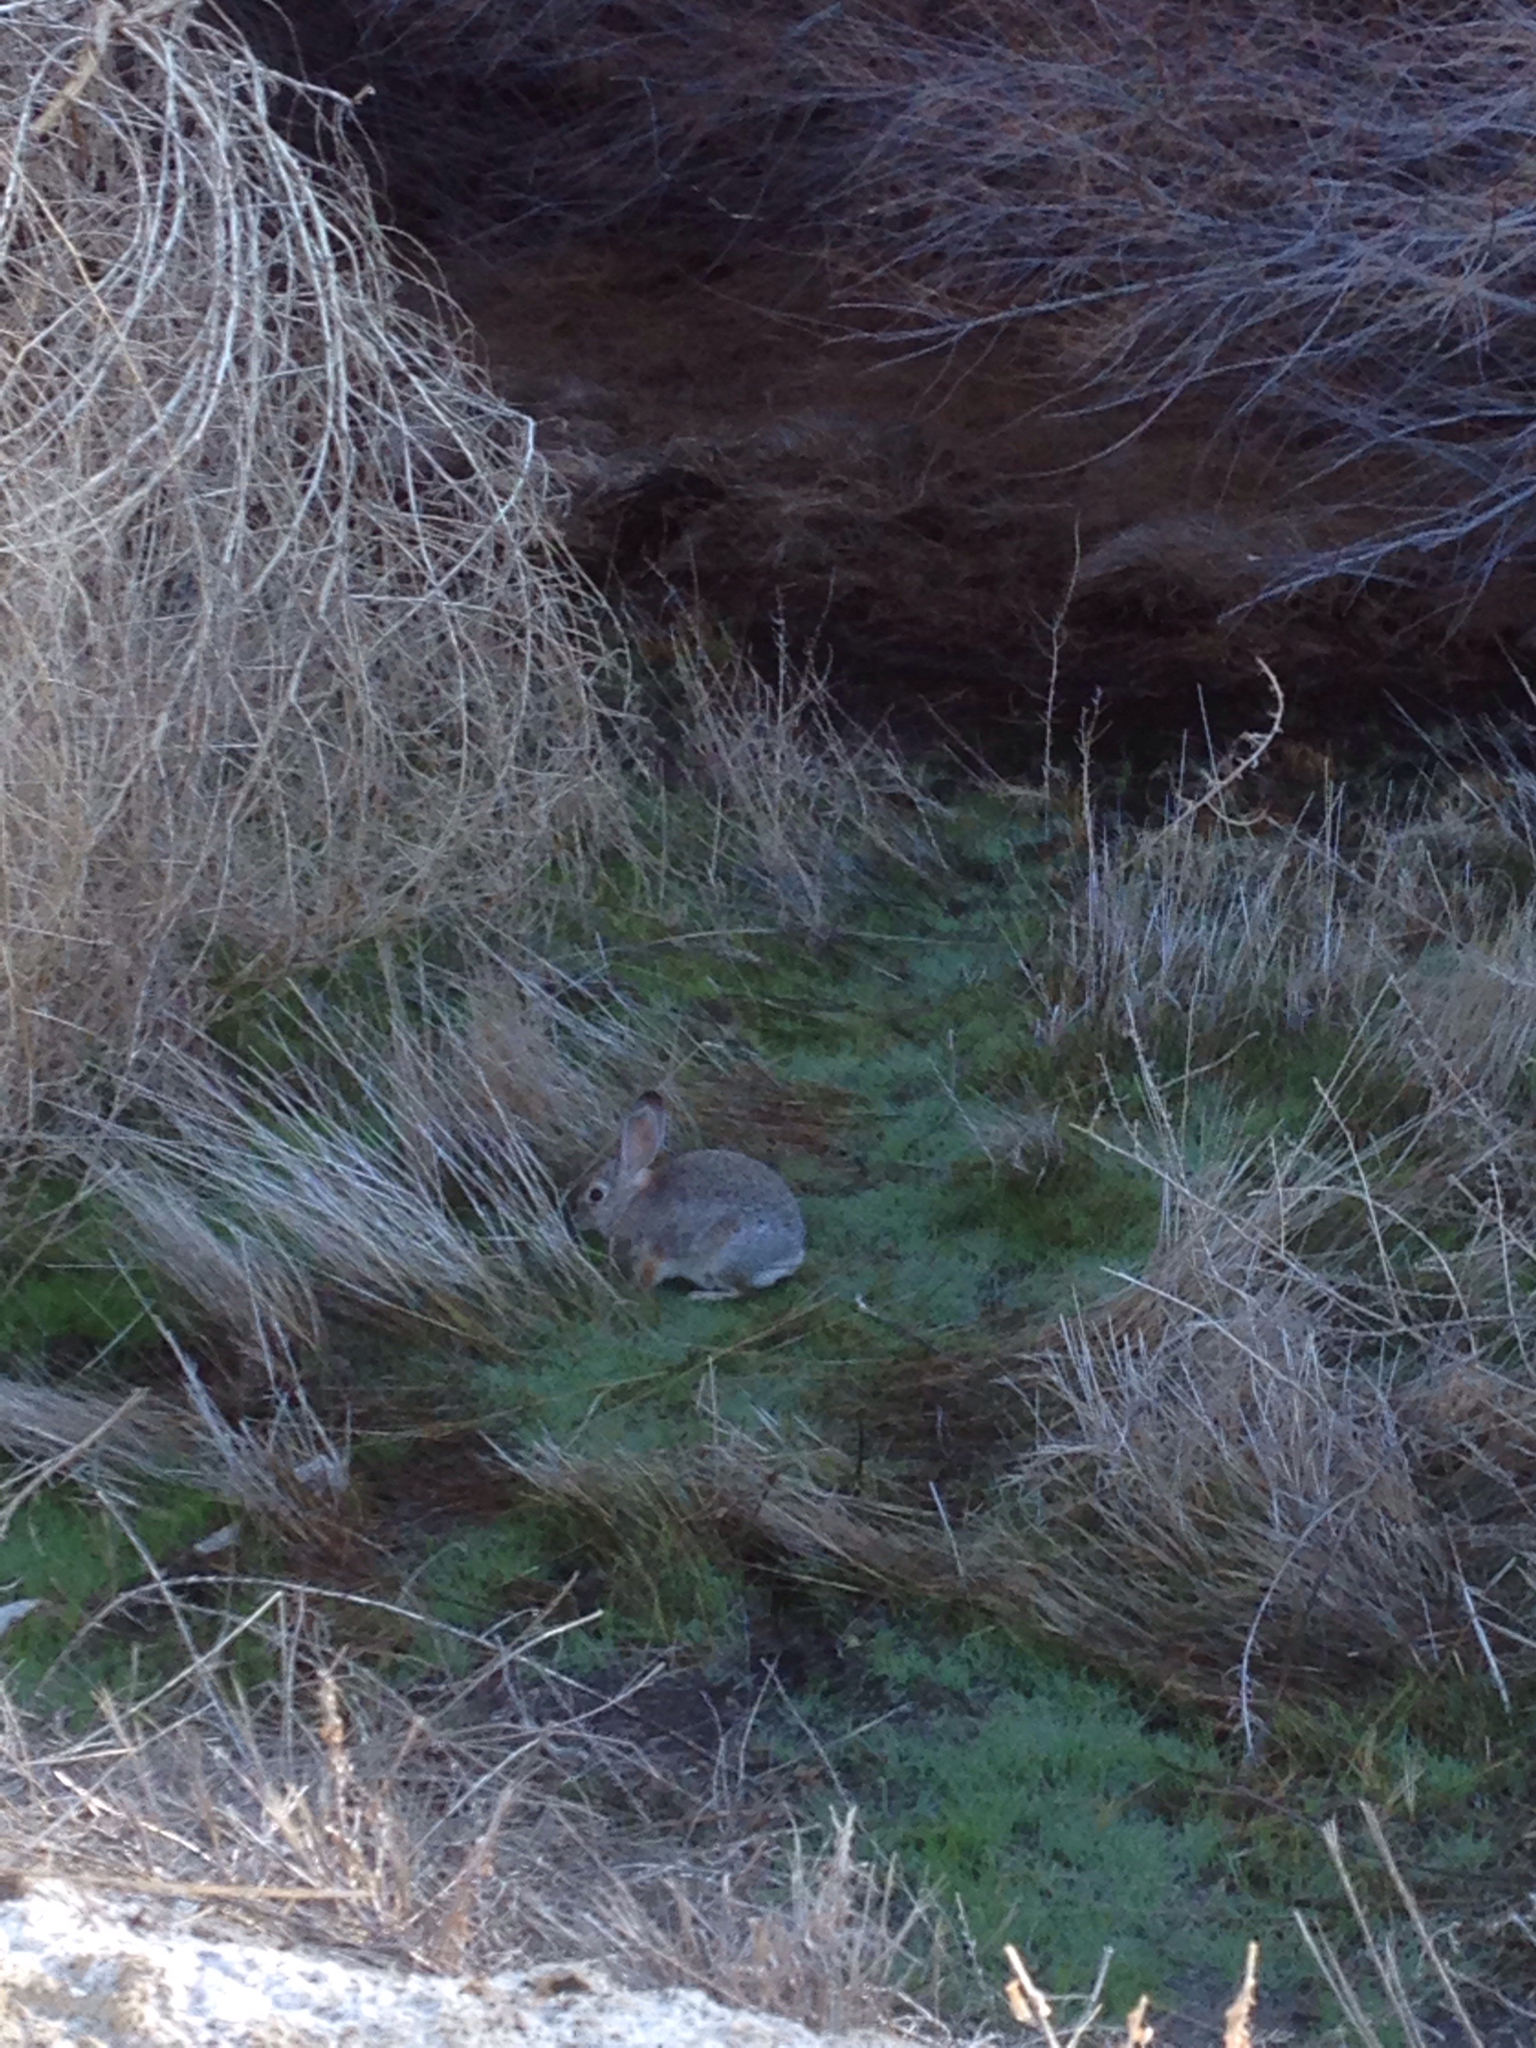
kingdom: Animalia
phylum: Chordata
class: Mammalia
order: Lagomorpha
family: Leporidae
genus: Sylvilagus
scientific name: Sylvilagus audubonii
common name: Desert cottontail
